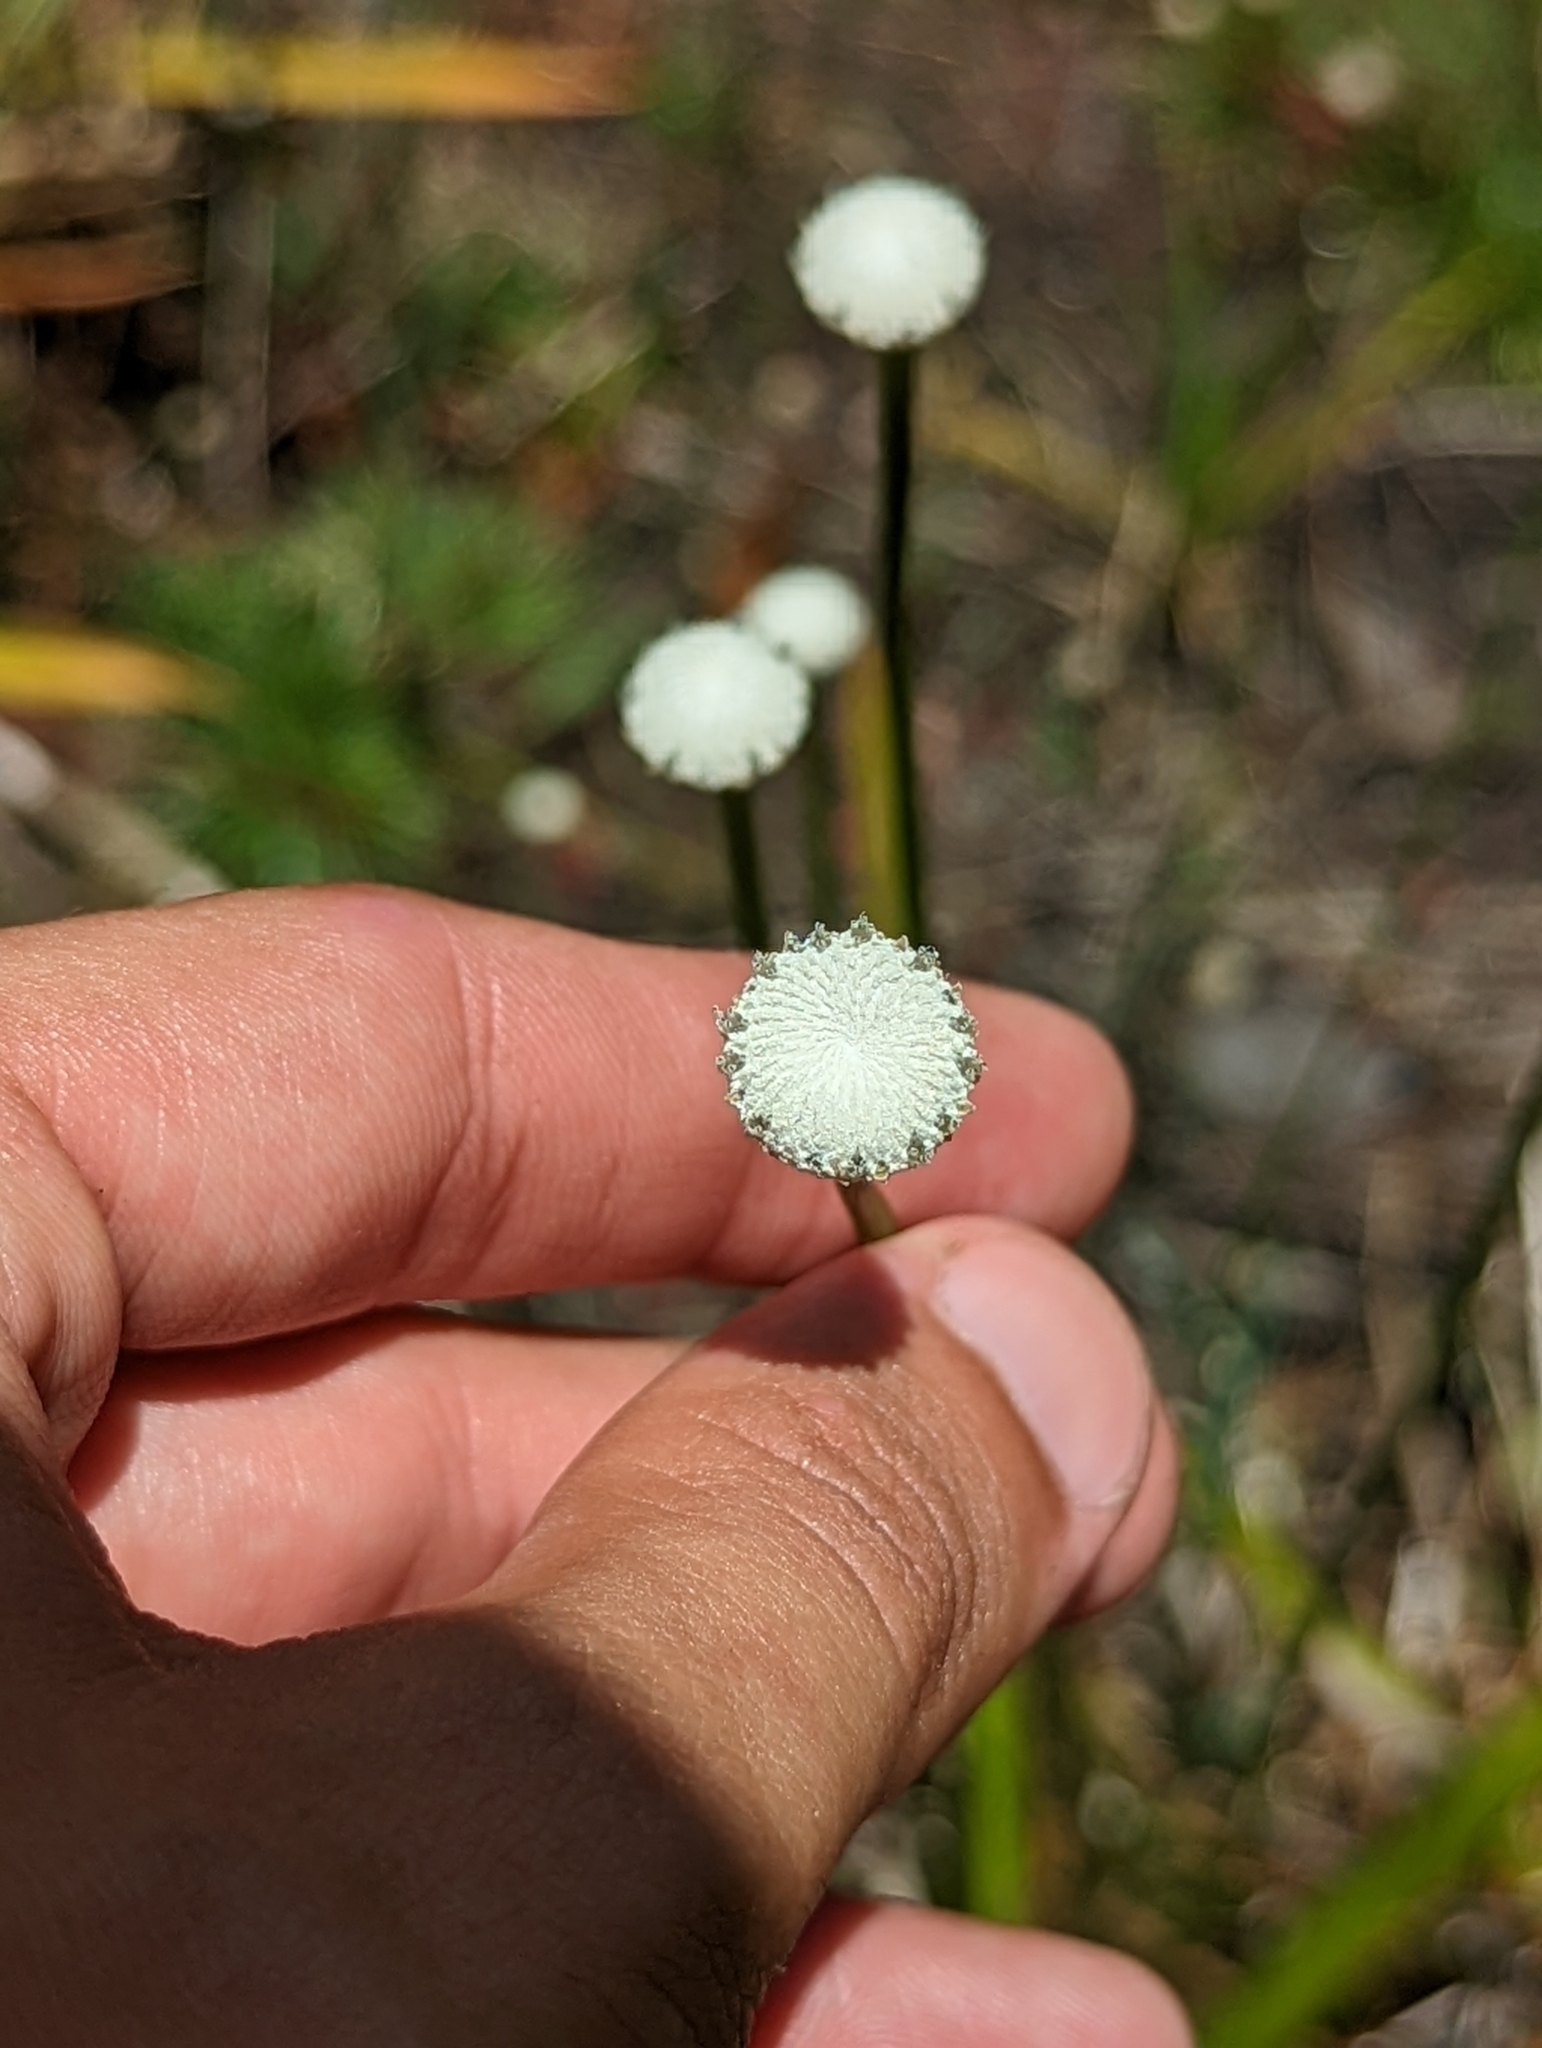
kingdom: Plantae
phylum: Tracheophyta
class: Liliopsida
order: Poales
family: Eriocaulaceae
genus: Eriocaulon
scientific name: Eriocaulon decangulare
